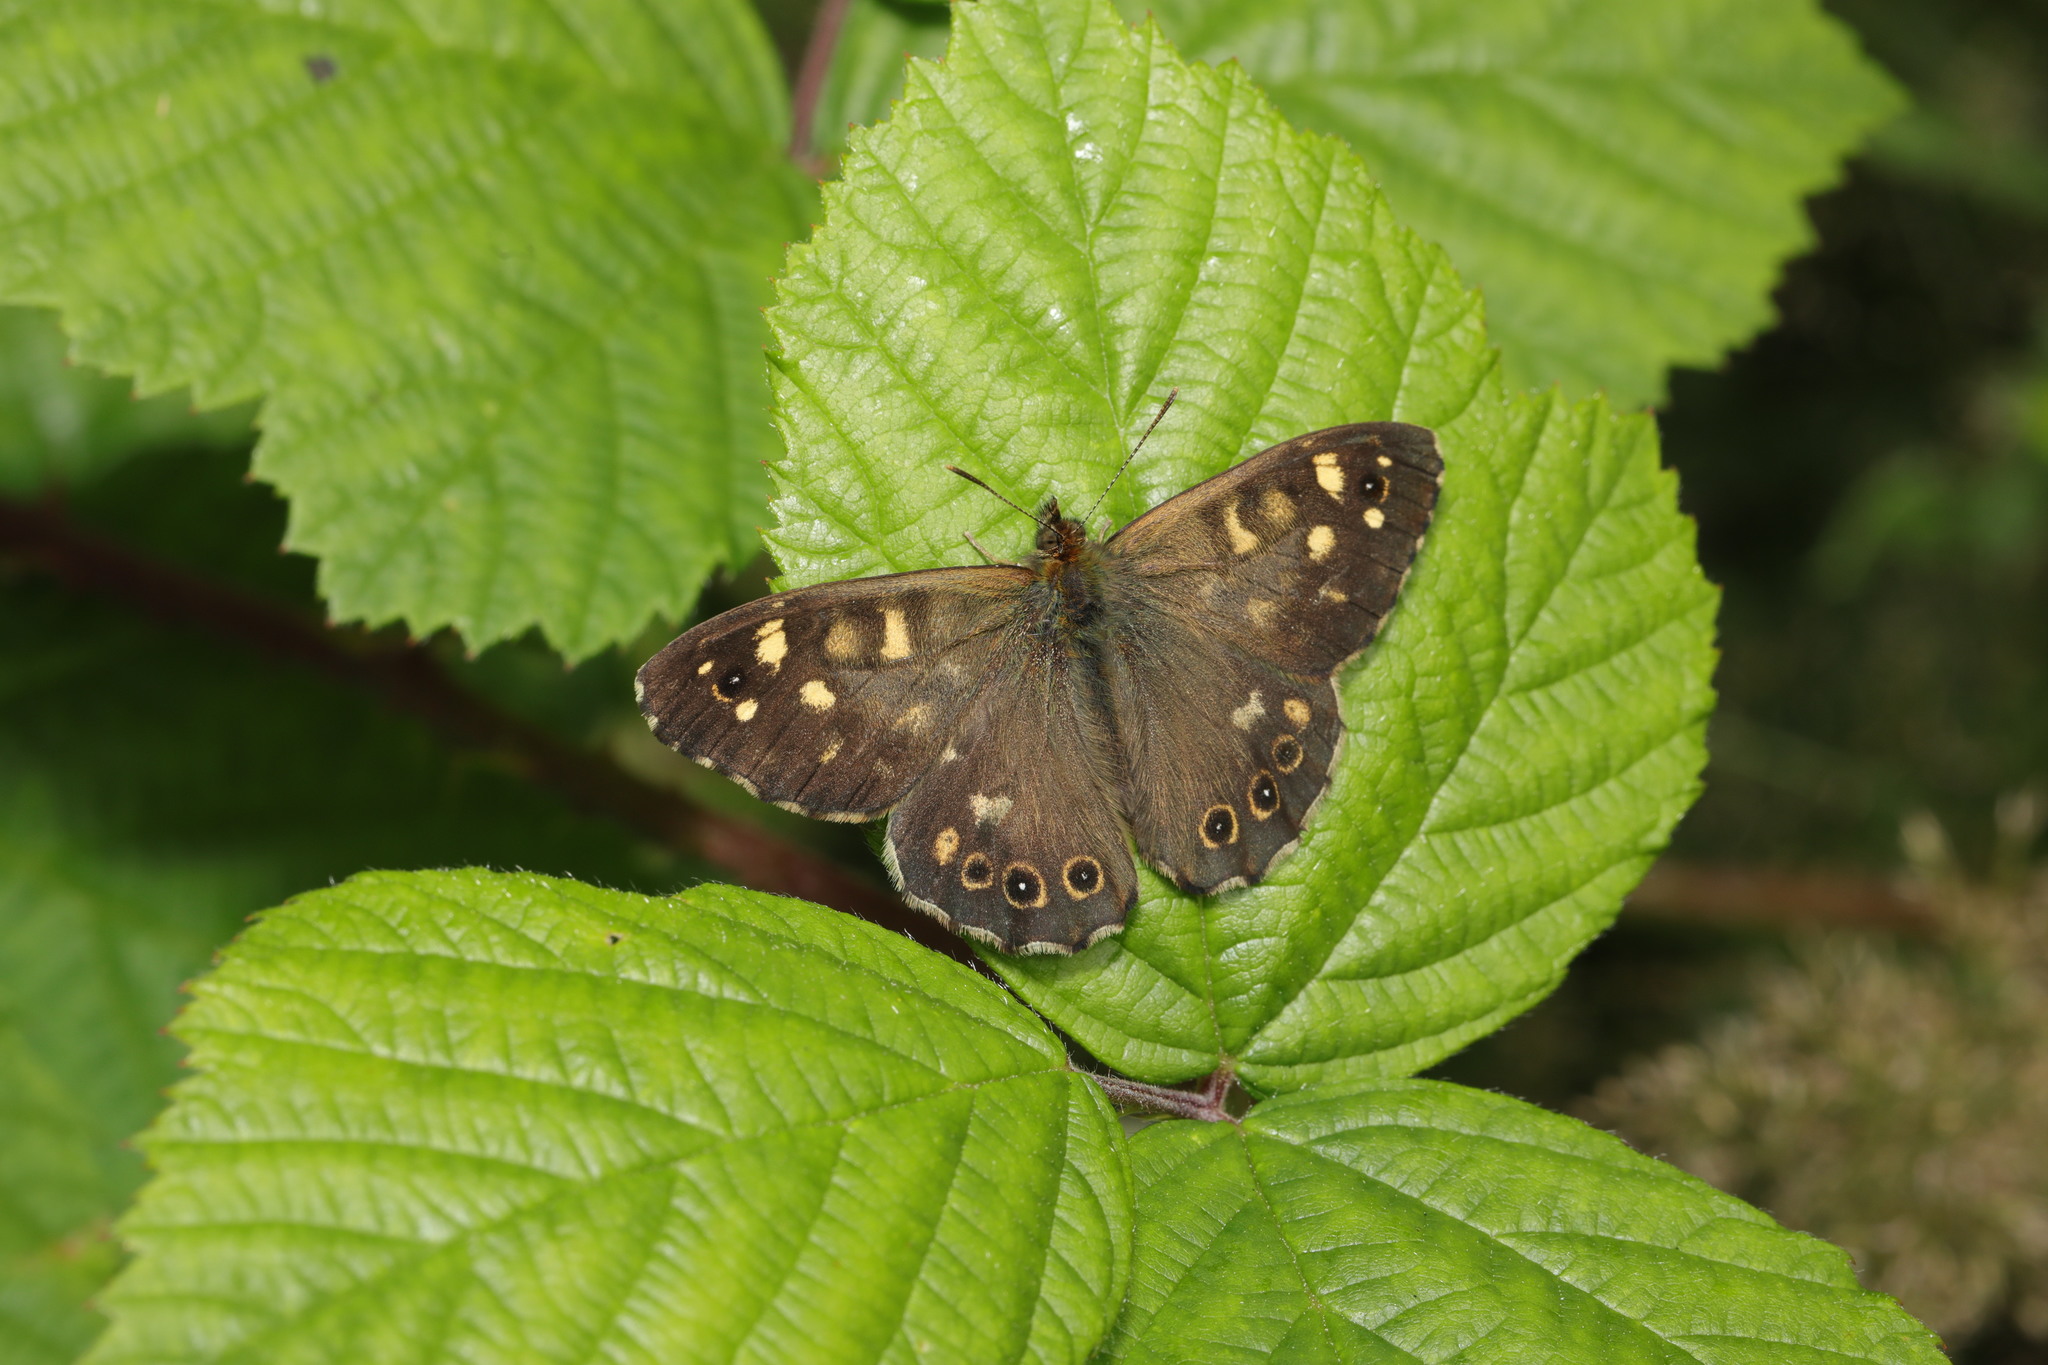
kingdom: Animalia
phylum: Arthropoda
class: Insecta
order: Lepidoptera
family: Nymphalidae
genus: Pararge
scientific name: Pararge aegeria
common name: Speckled wood
